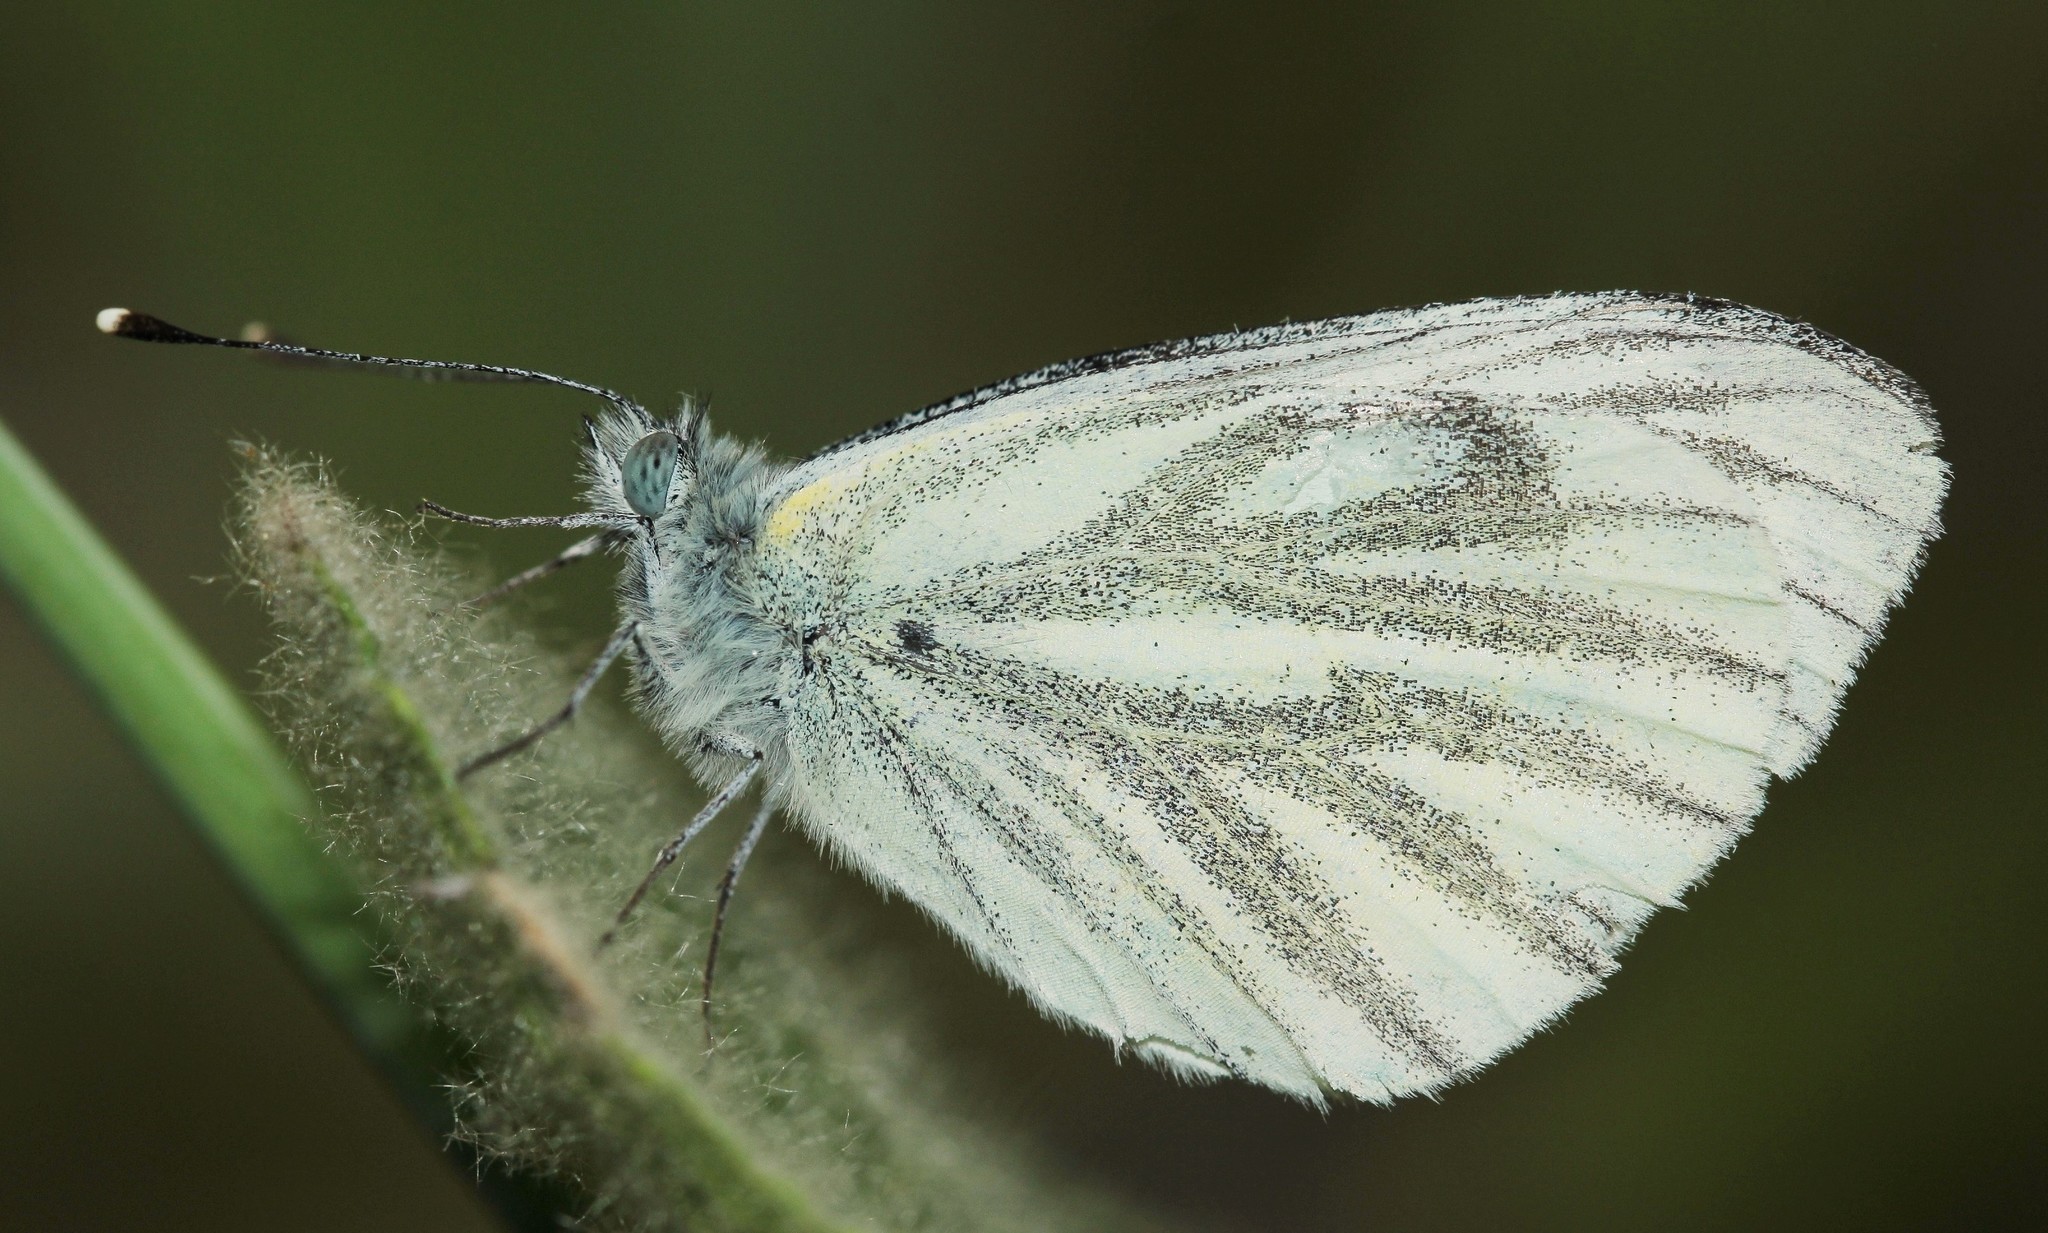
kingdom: Animalia
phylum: Arthropoda
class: Insecta
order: Lepidoptera
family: Pieridae
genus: Pieris
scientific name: Pieris napi
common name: Green-veined white
